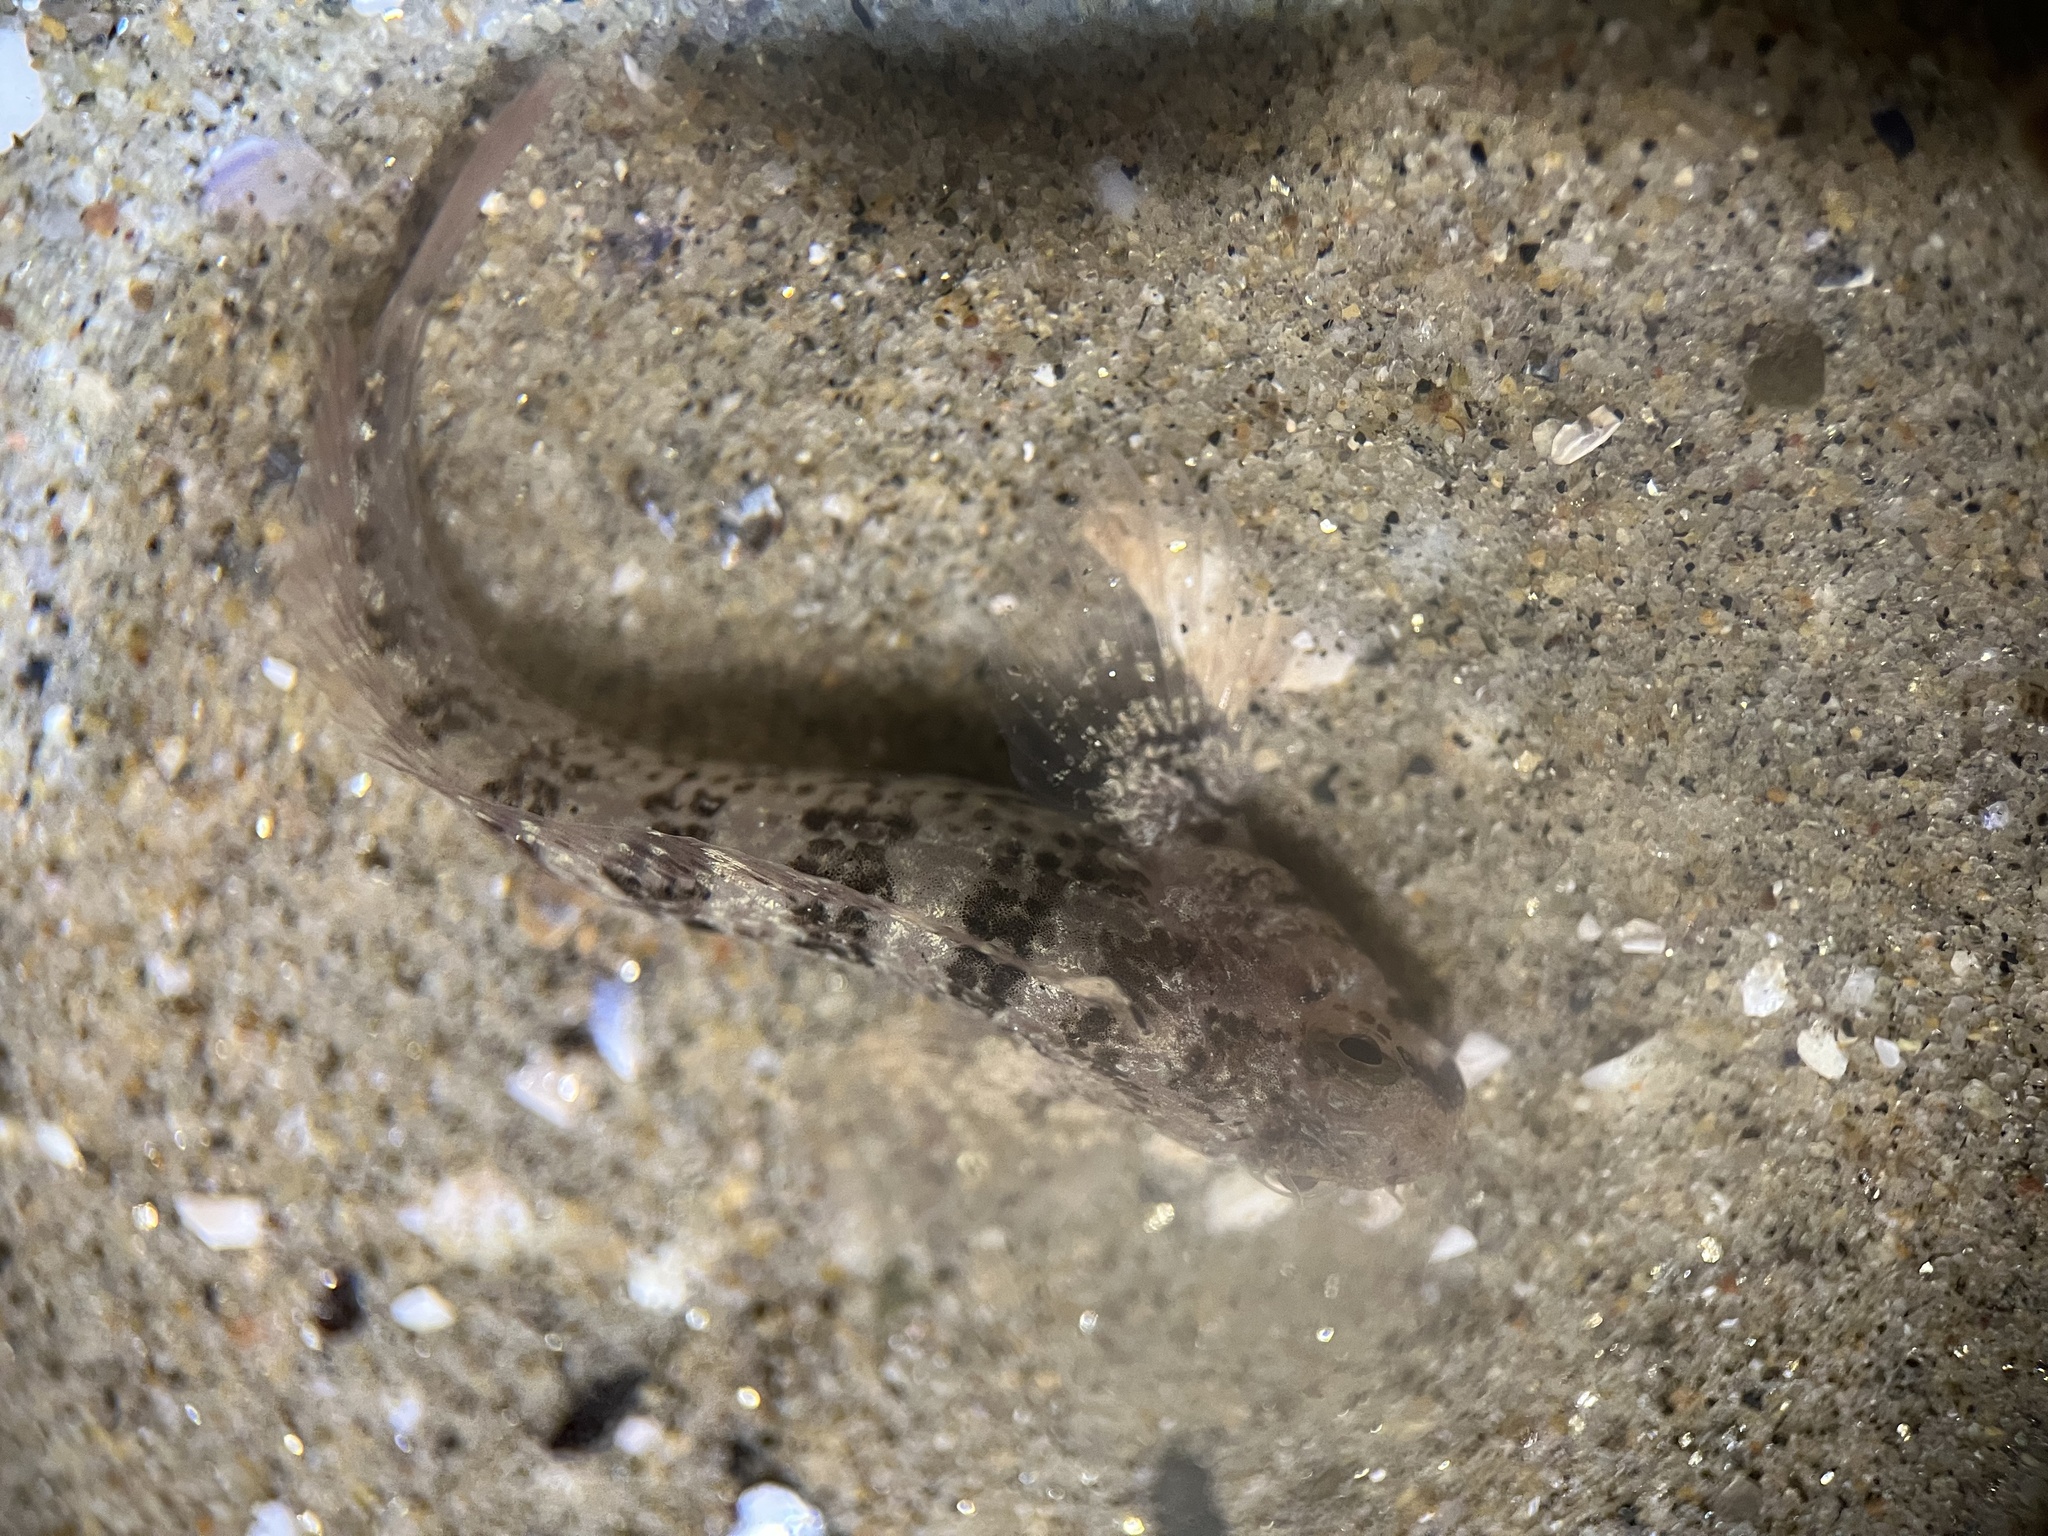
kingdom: Animalia
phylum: Chordata
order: Perciformes
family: Blenniidae
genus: Hypsoblennius
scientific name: Hypsoblennius gilberti
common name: Notchbrow blenny
